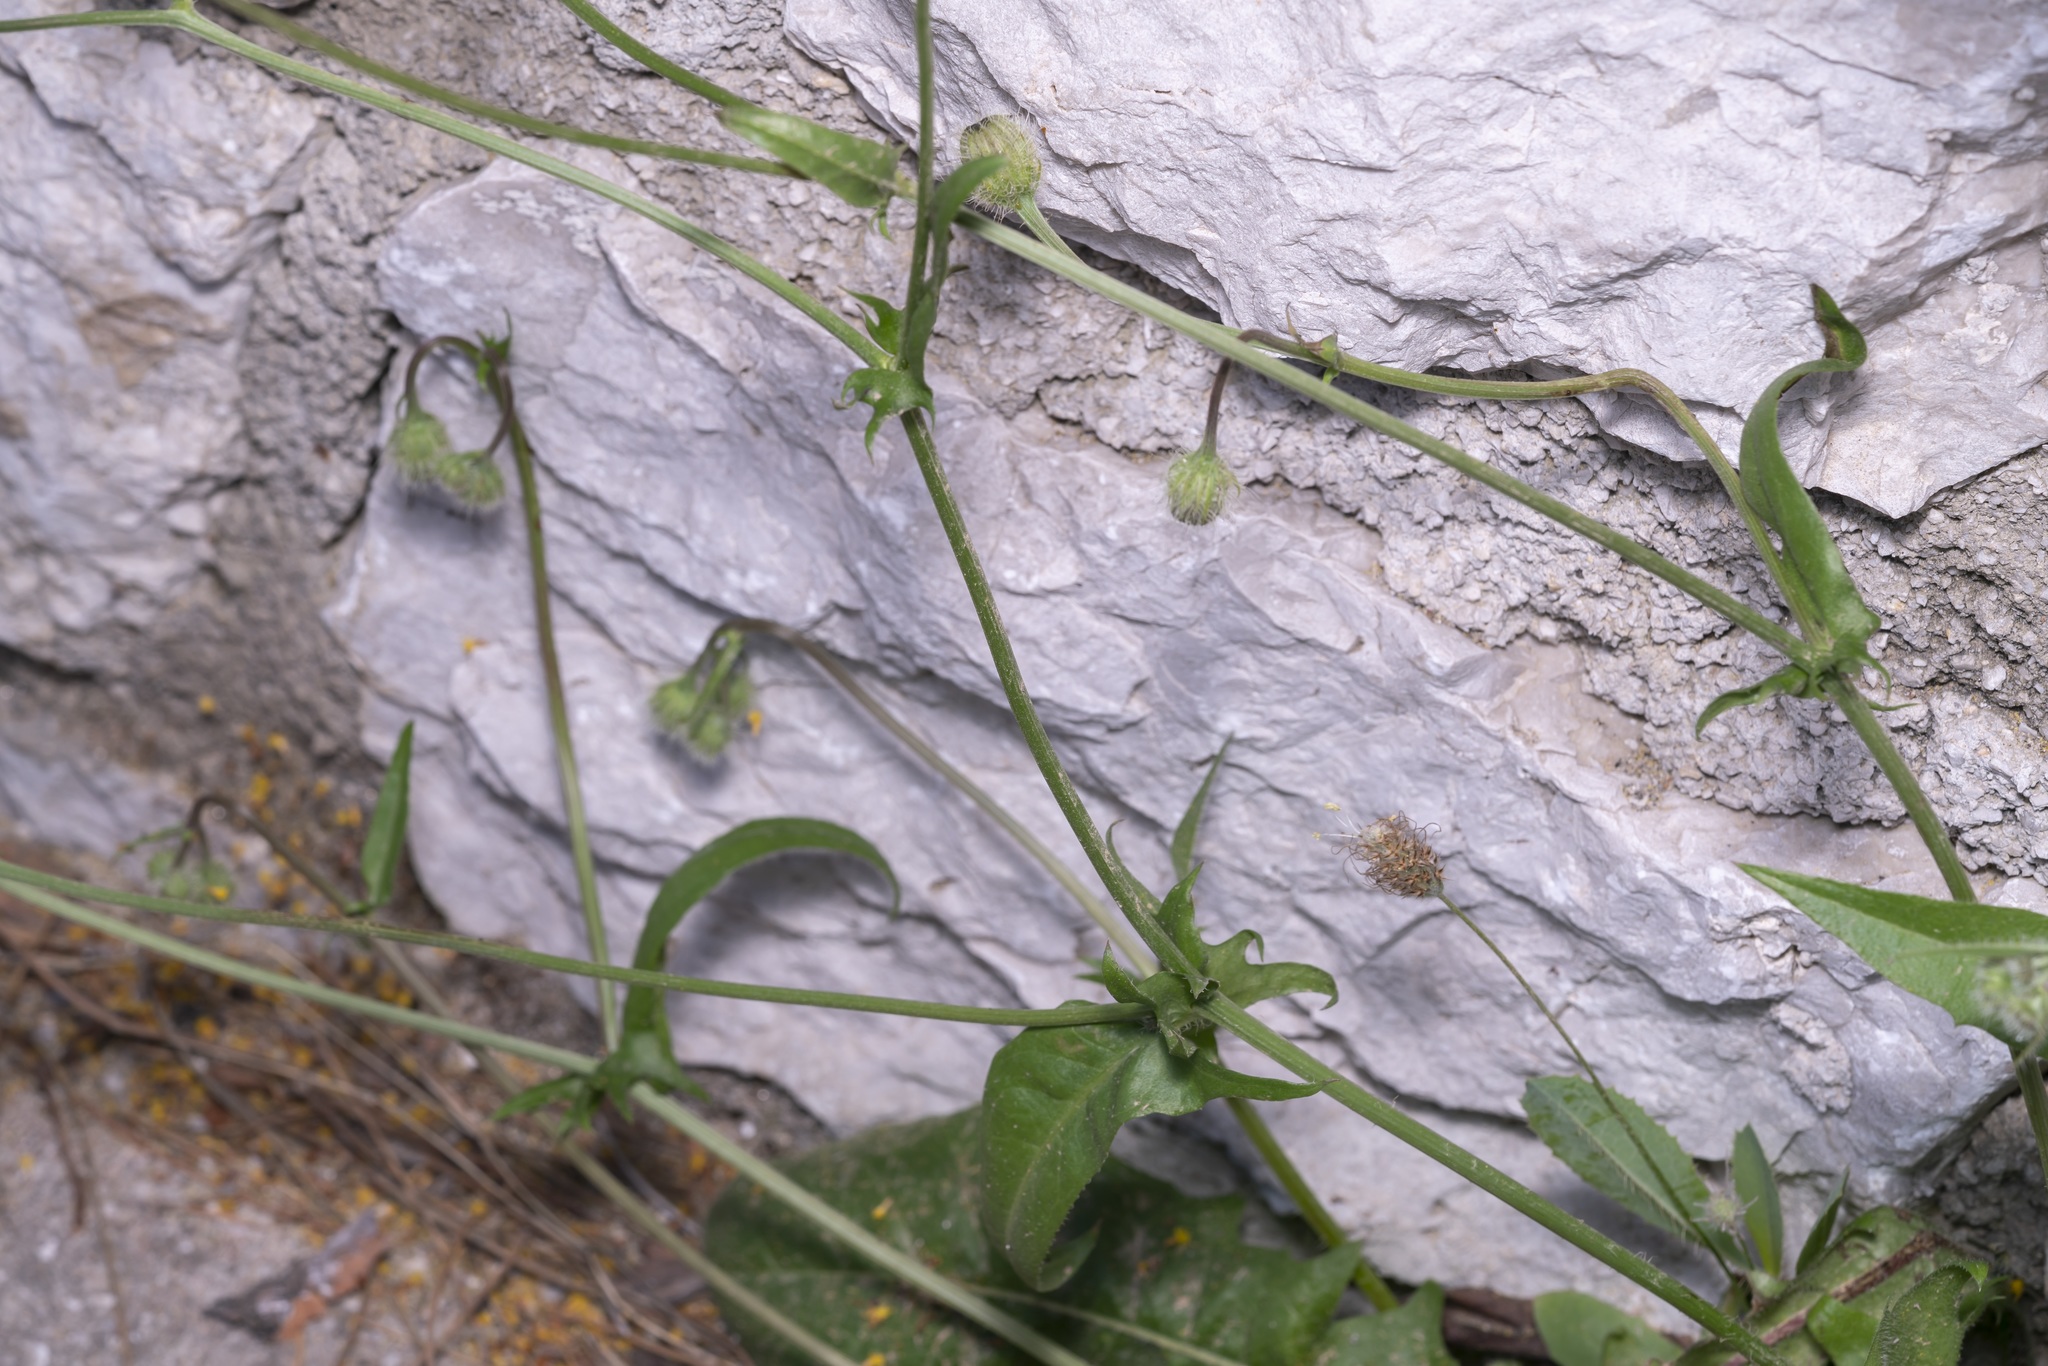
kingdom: Plantae
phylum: Tracheophyta
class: Magnoliopsida
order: Asterales
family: Asteraceae
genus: Crepis
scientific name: Crepis commutata
